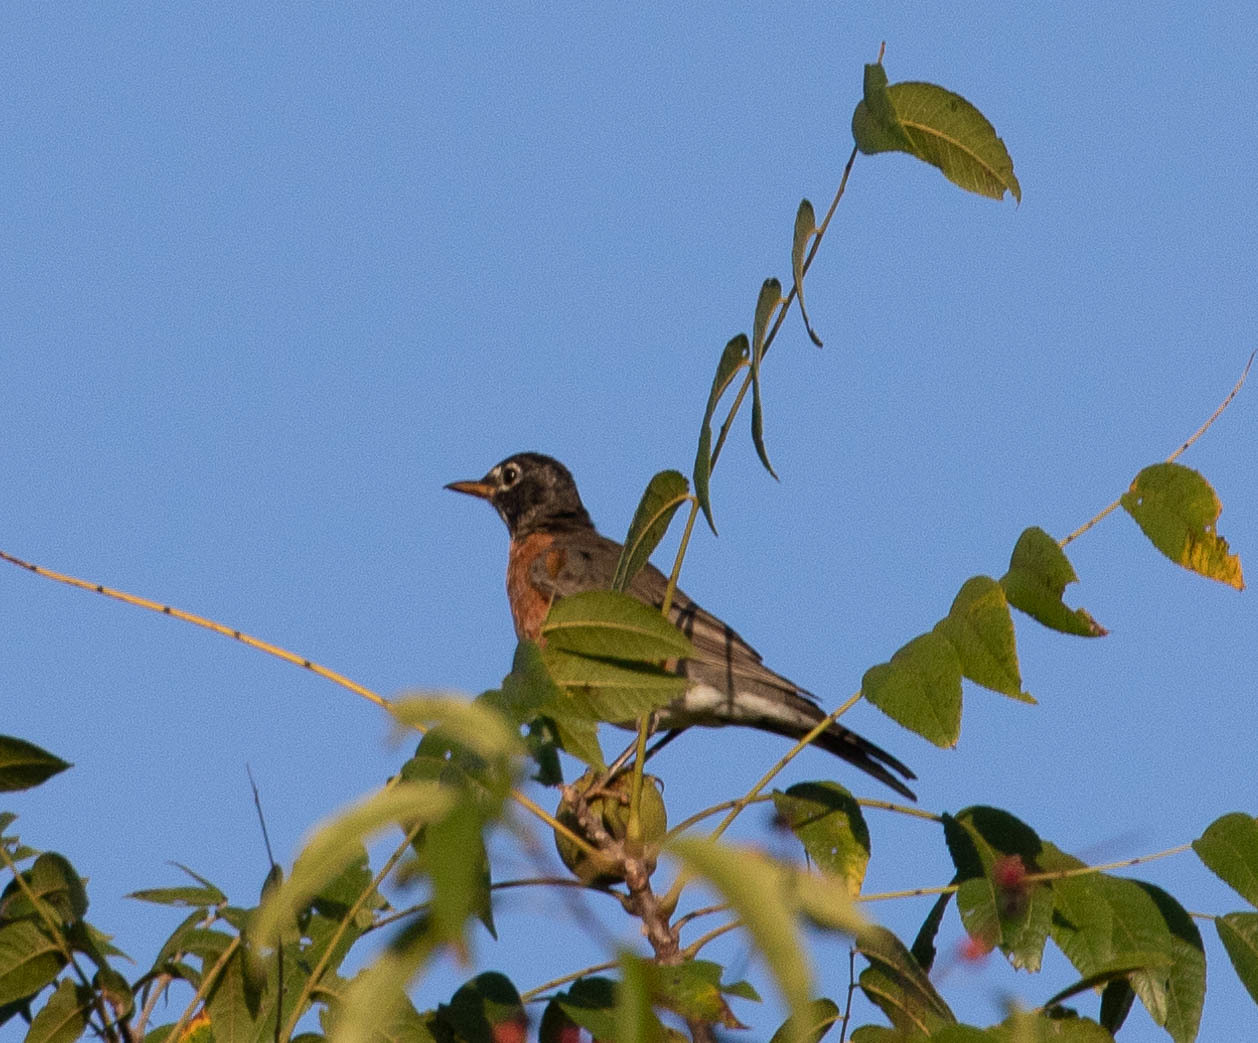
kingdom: Animalia
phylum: Chordata
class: Aves
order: Passeriformes
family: Turdidae
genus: Turdus
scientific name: Turdus migratorius
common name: American robin
